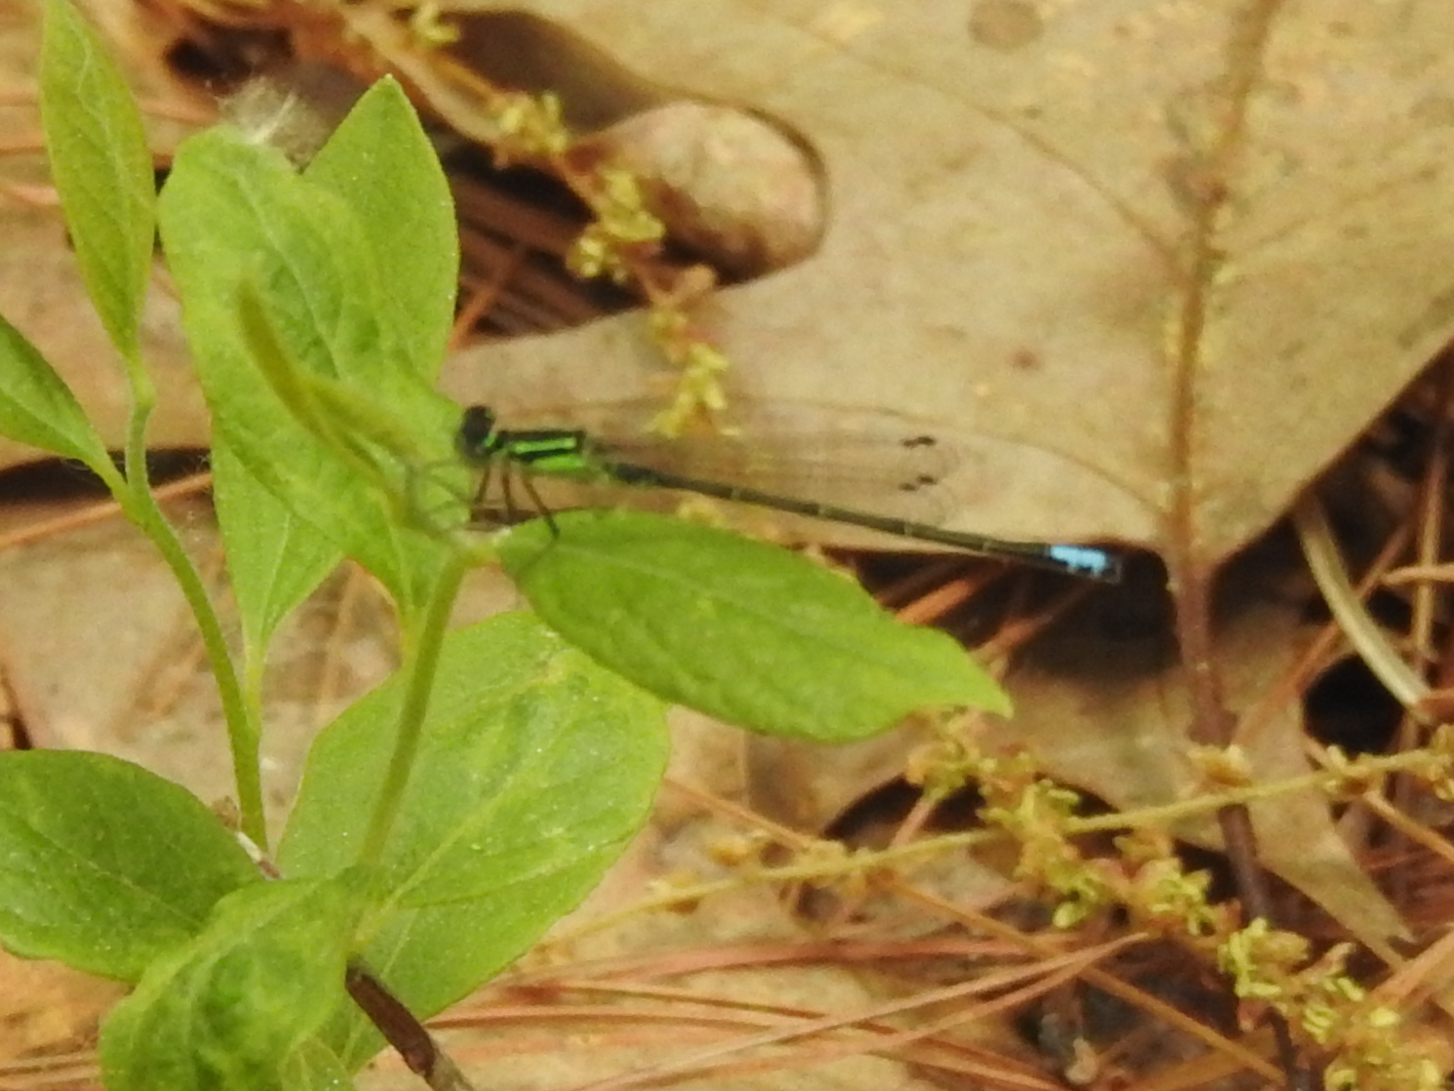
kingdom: Animalia
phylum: Arthropoda
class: Insecta
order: Odonata
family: Coenagrionidae
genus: Ischnura
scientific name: Ischnura verticalis
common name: Eastern forktail
